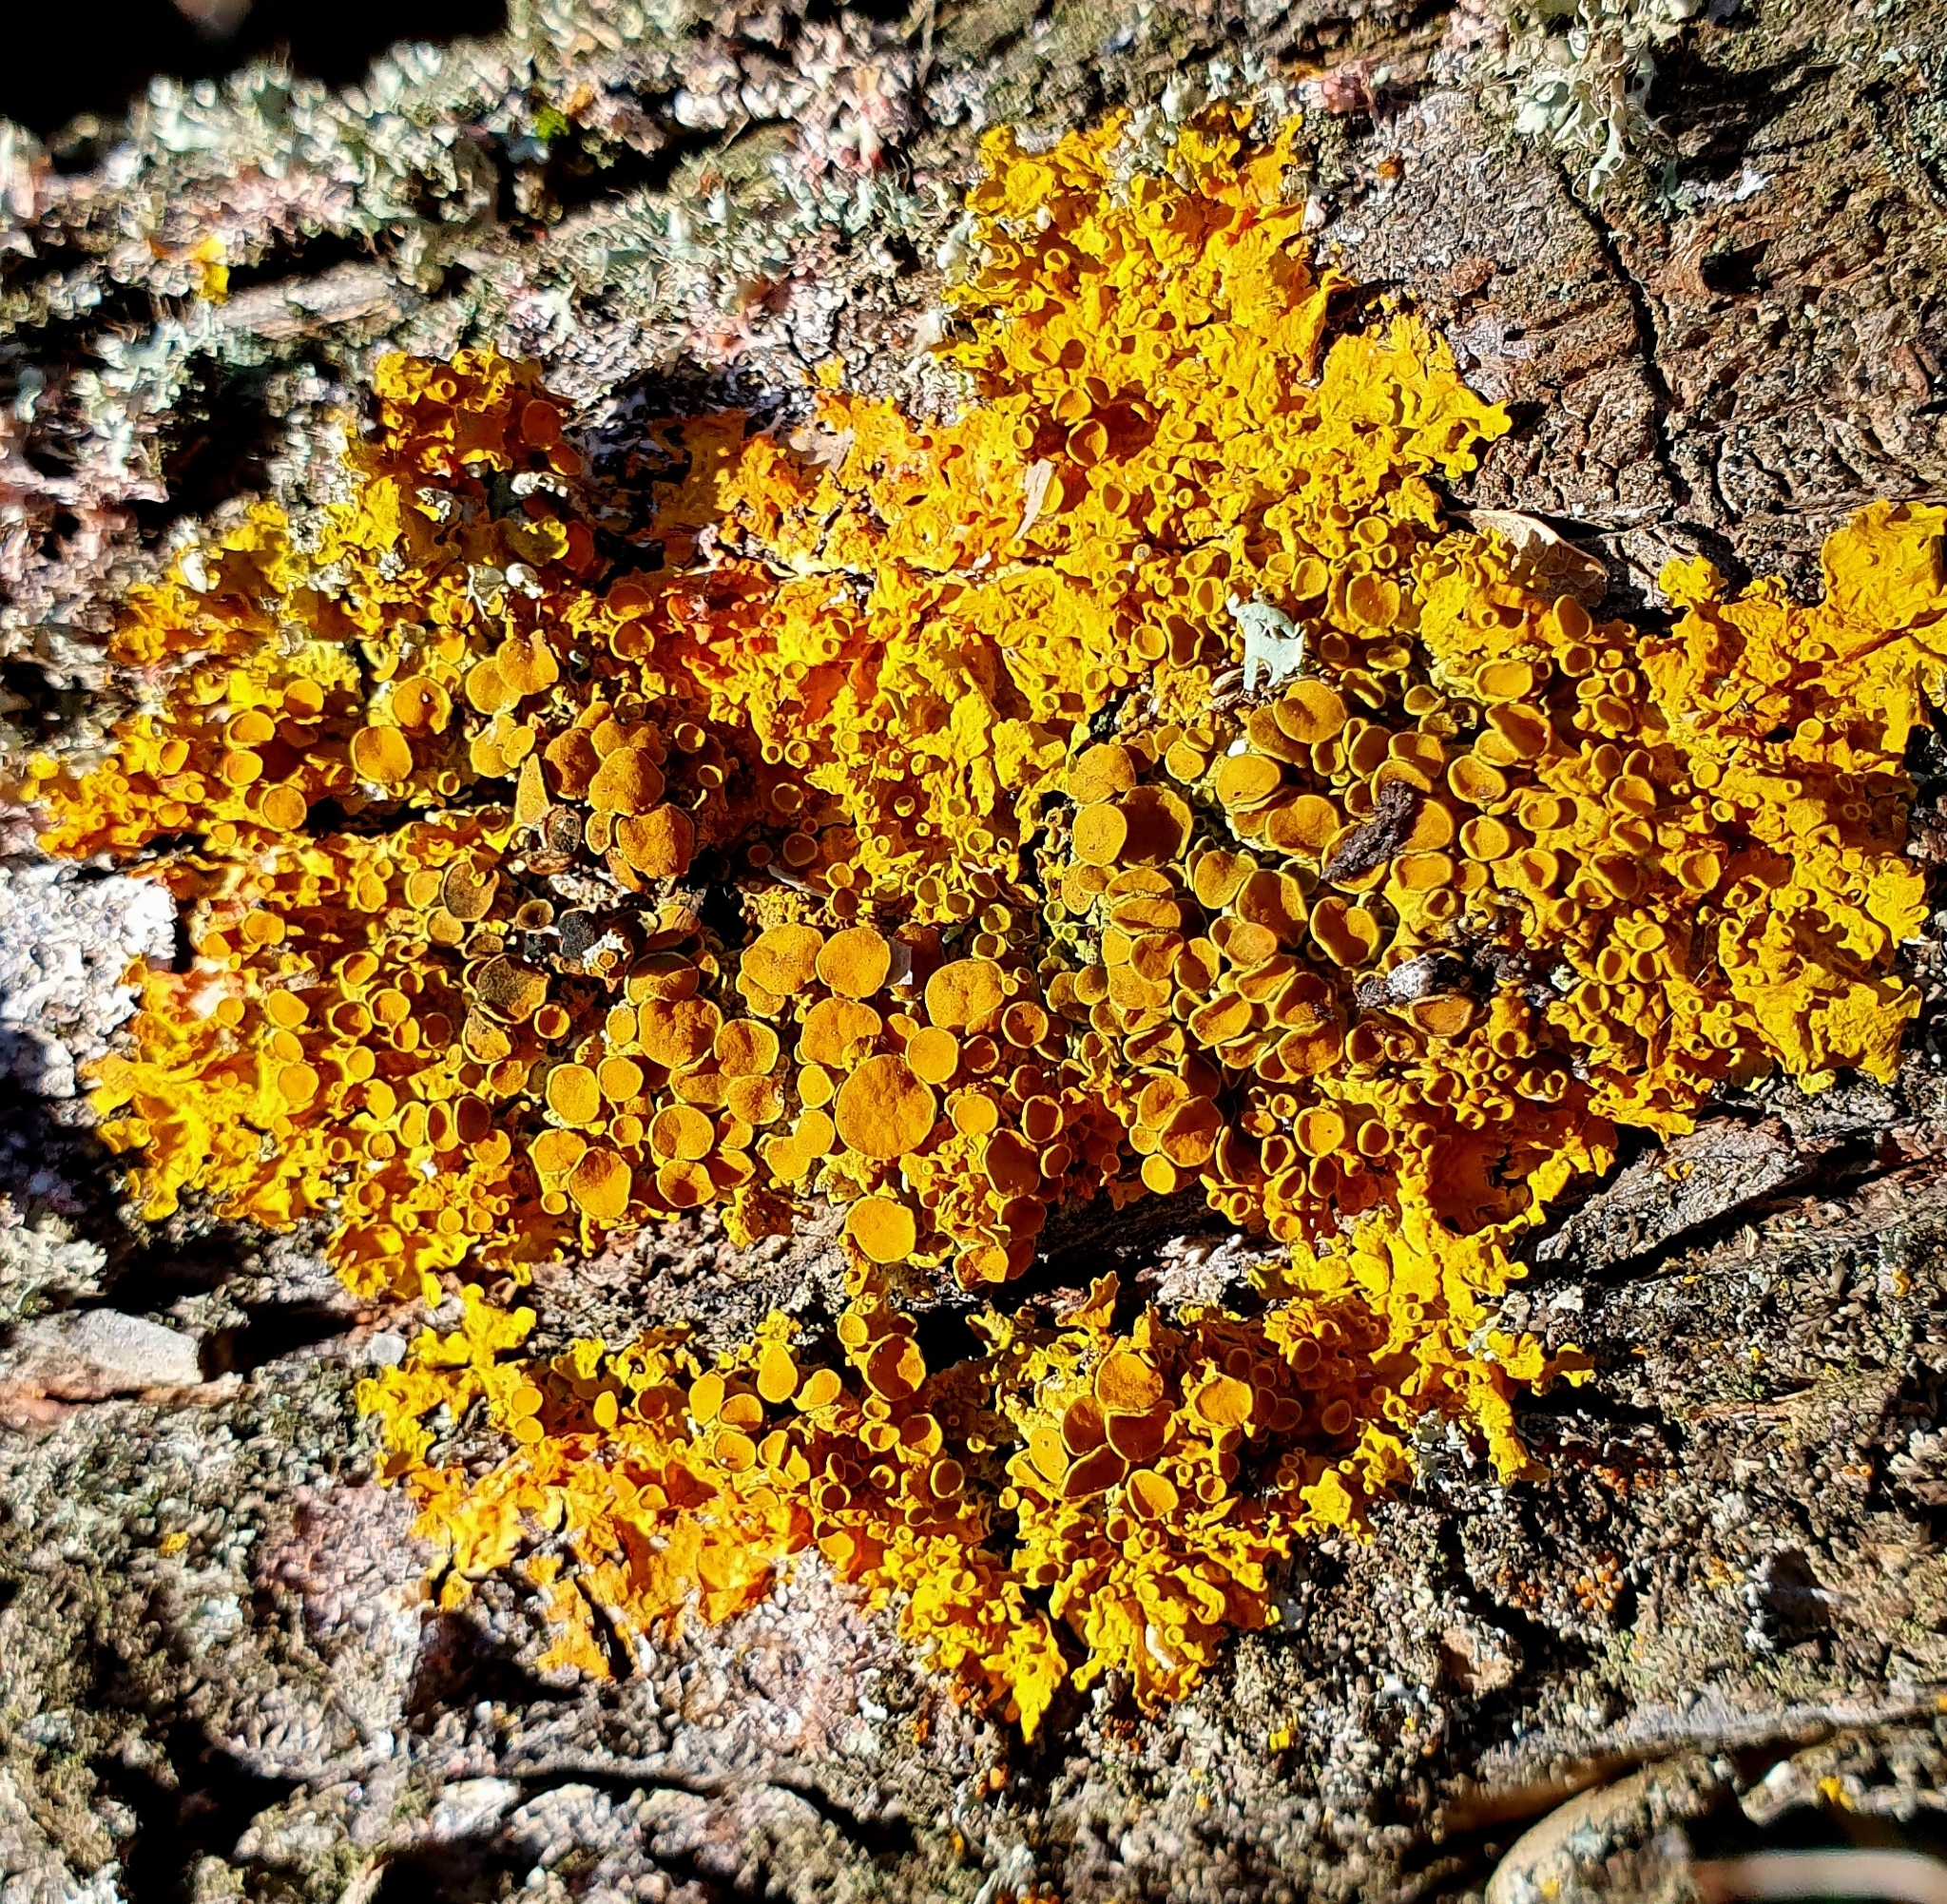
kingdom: Fungi
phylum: Ascomycota
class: Lecanoromycetes
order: Teloschistales
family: Teloschistaceae
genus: Xanthoria
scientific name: Xanthoria parietina
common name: Common orange lichen
